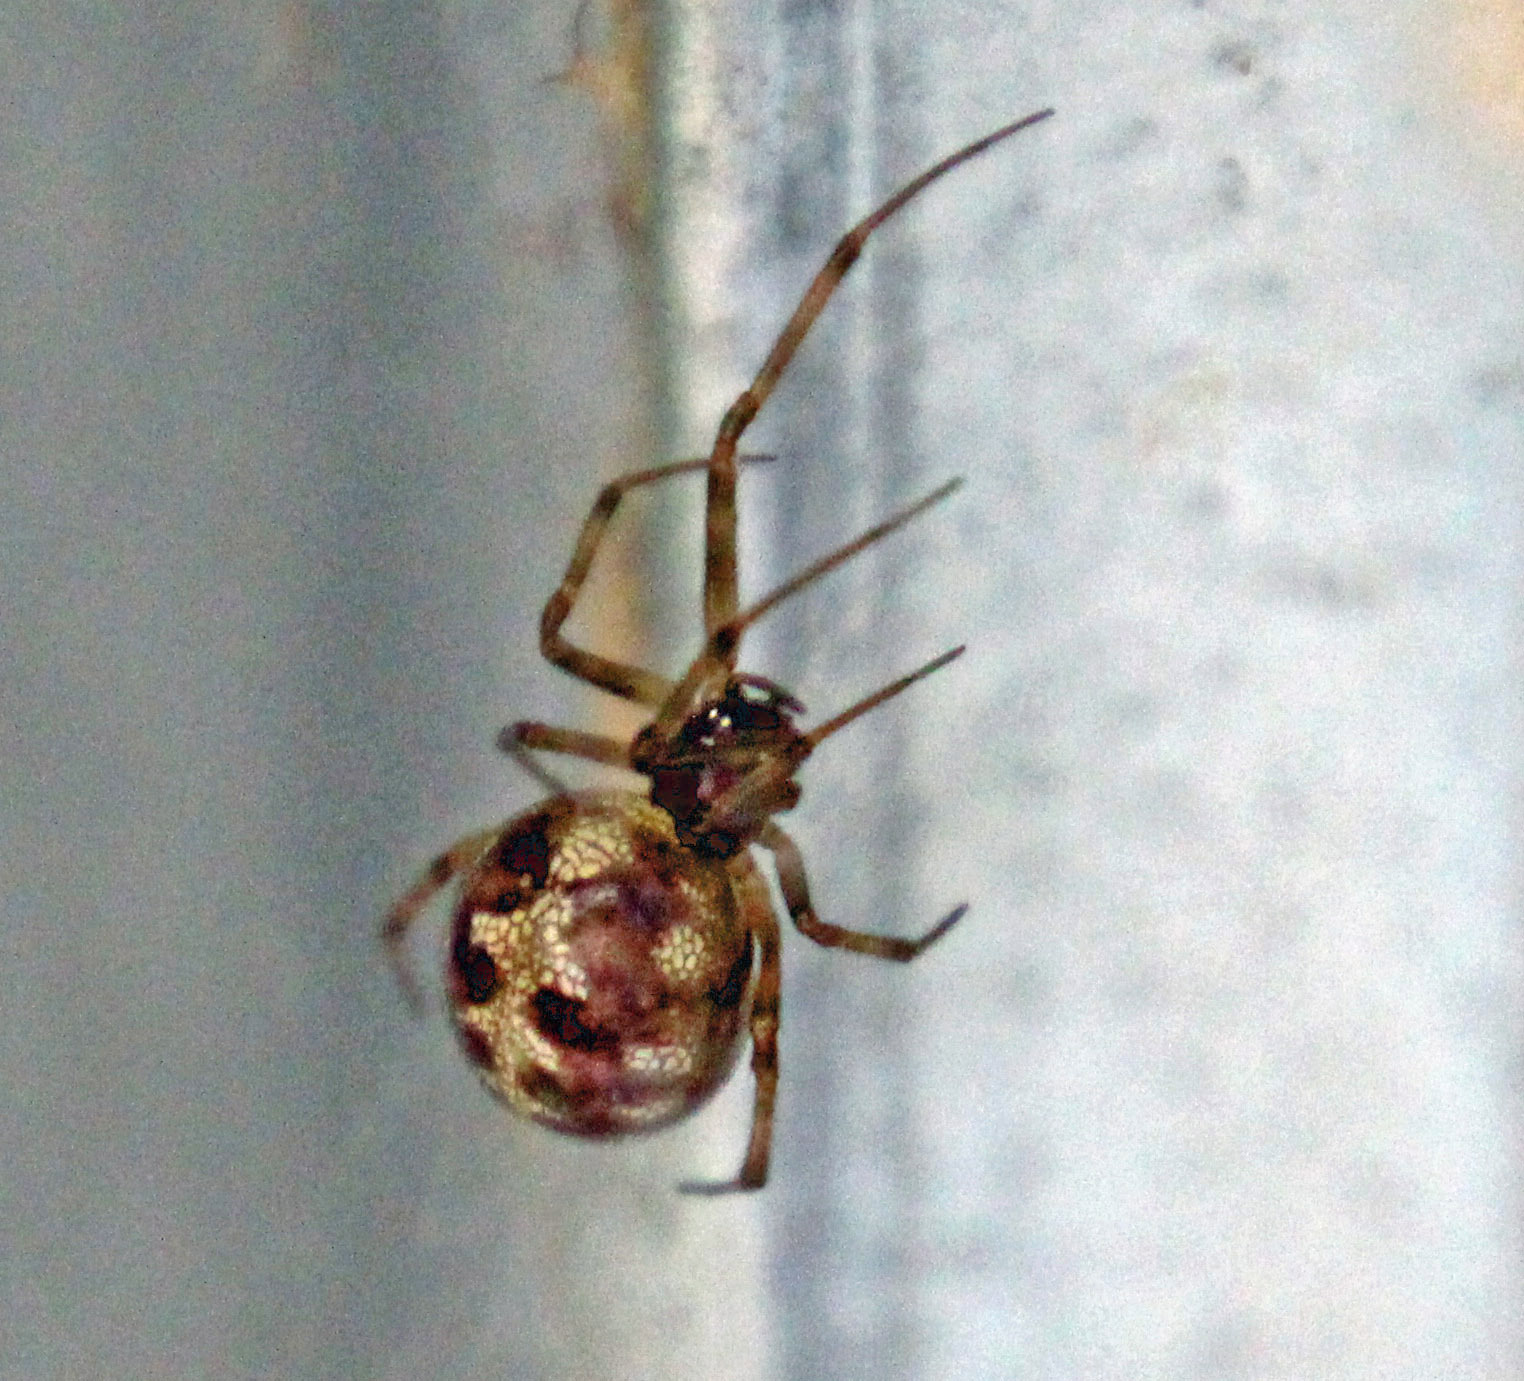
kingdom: Animalia
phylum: Arthropoda
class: Arachnida
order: Araneae
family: Theridiidae
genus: Steatoda
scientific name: Steatoda triangulosa
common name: Triangulate bud spider
